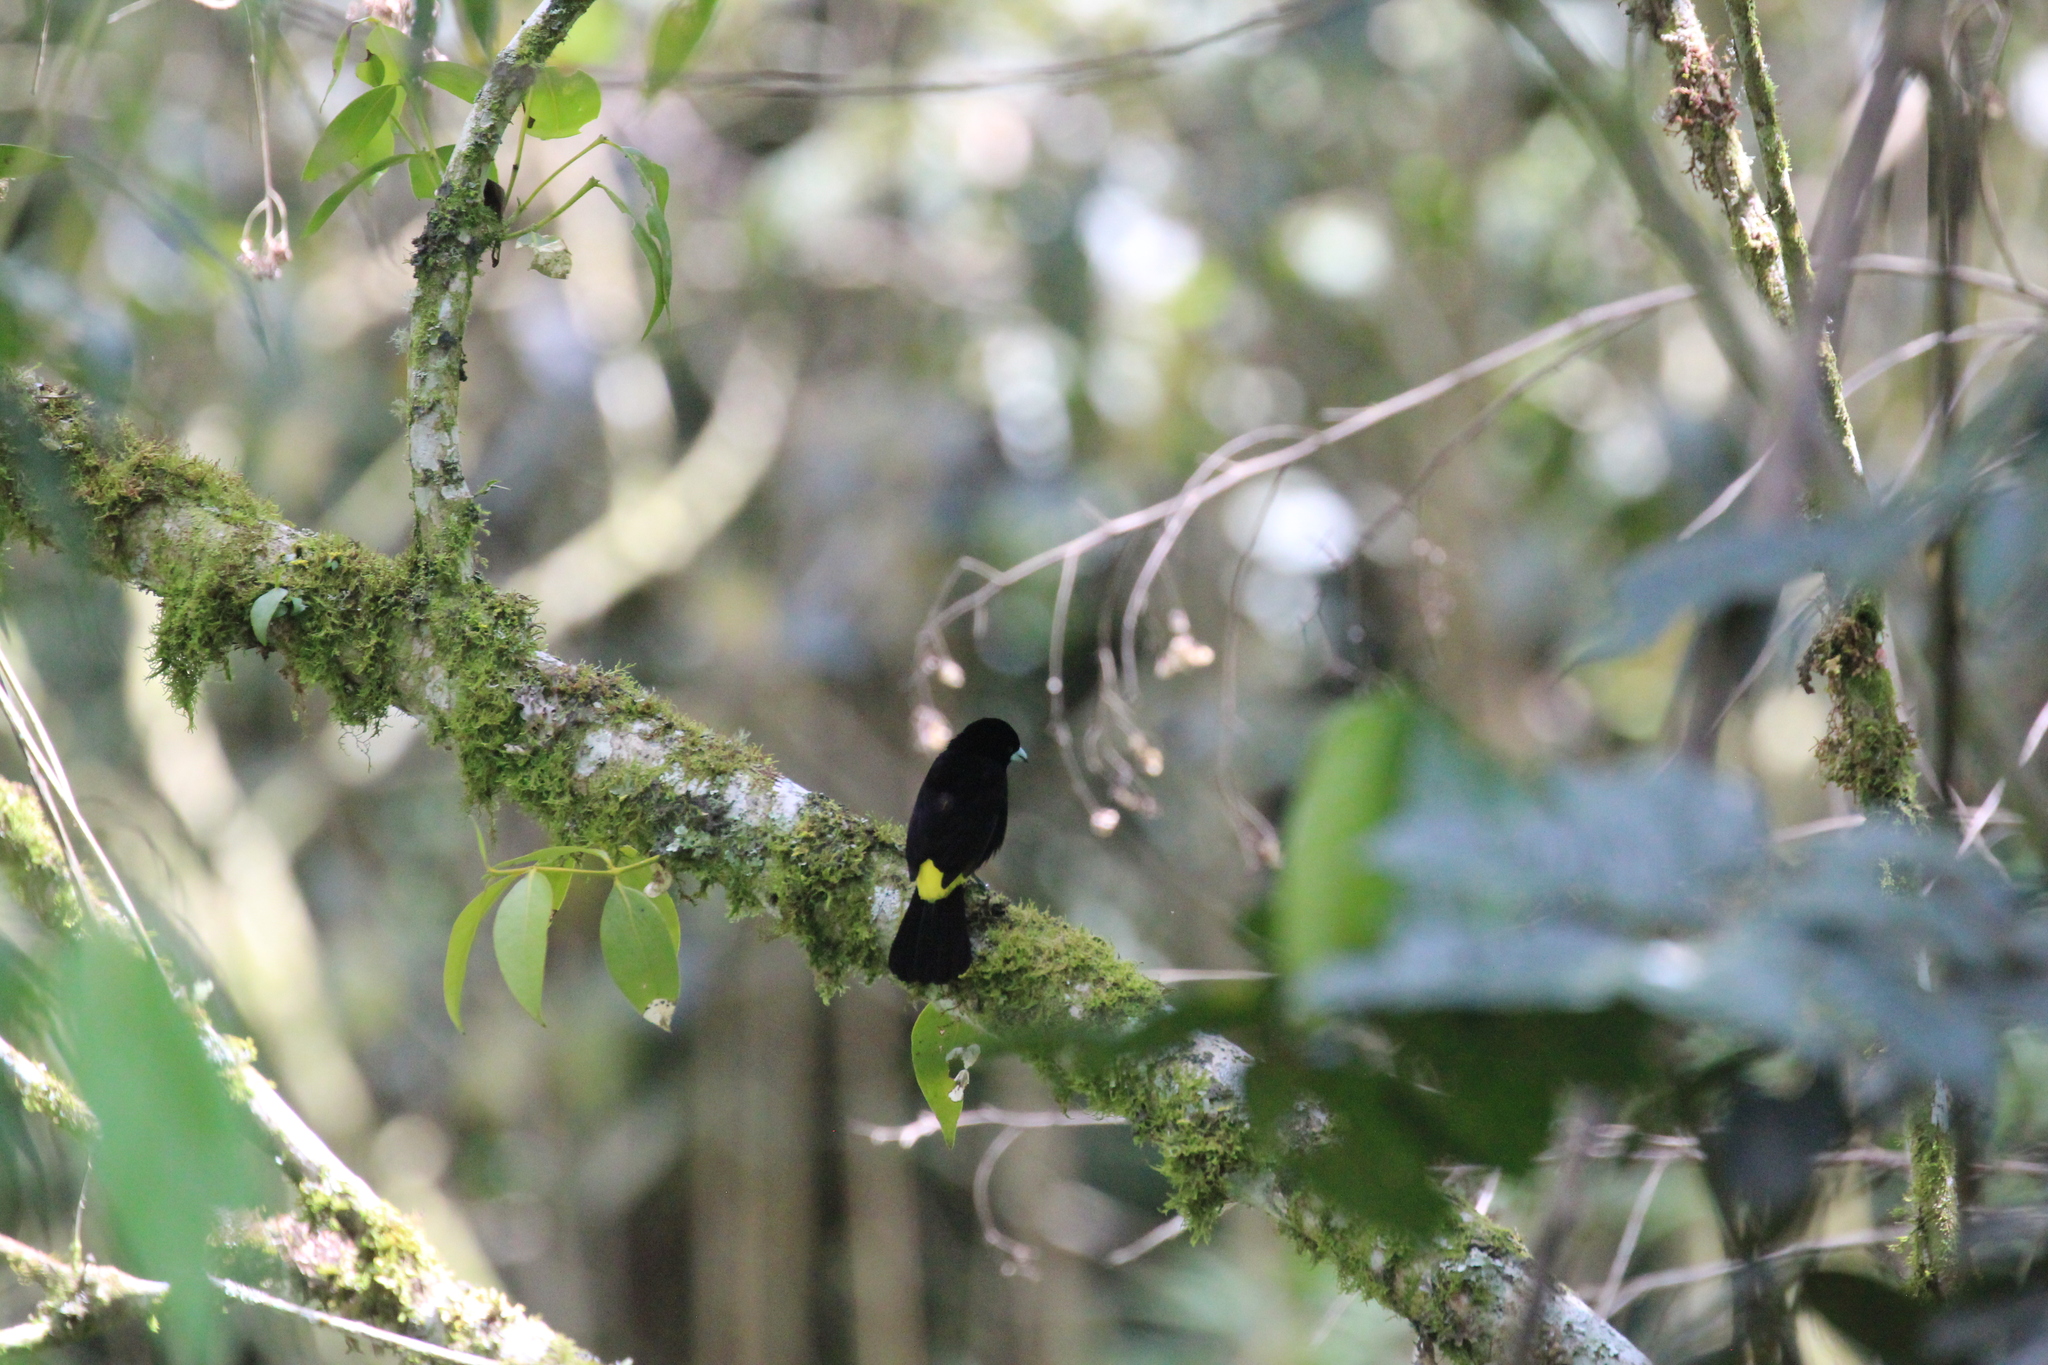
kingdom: Animalia
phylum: Chordata
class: Aves
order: Passeriformes
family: Thraupidae
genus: Ramphocelus
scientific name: Ramphocelus flammigerus
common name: Flame-rumped tanager
